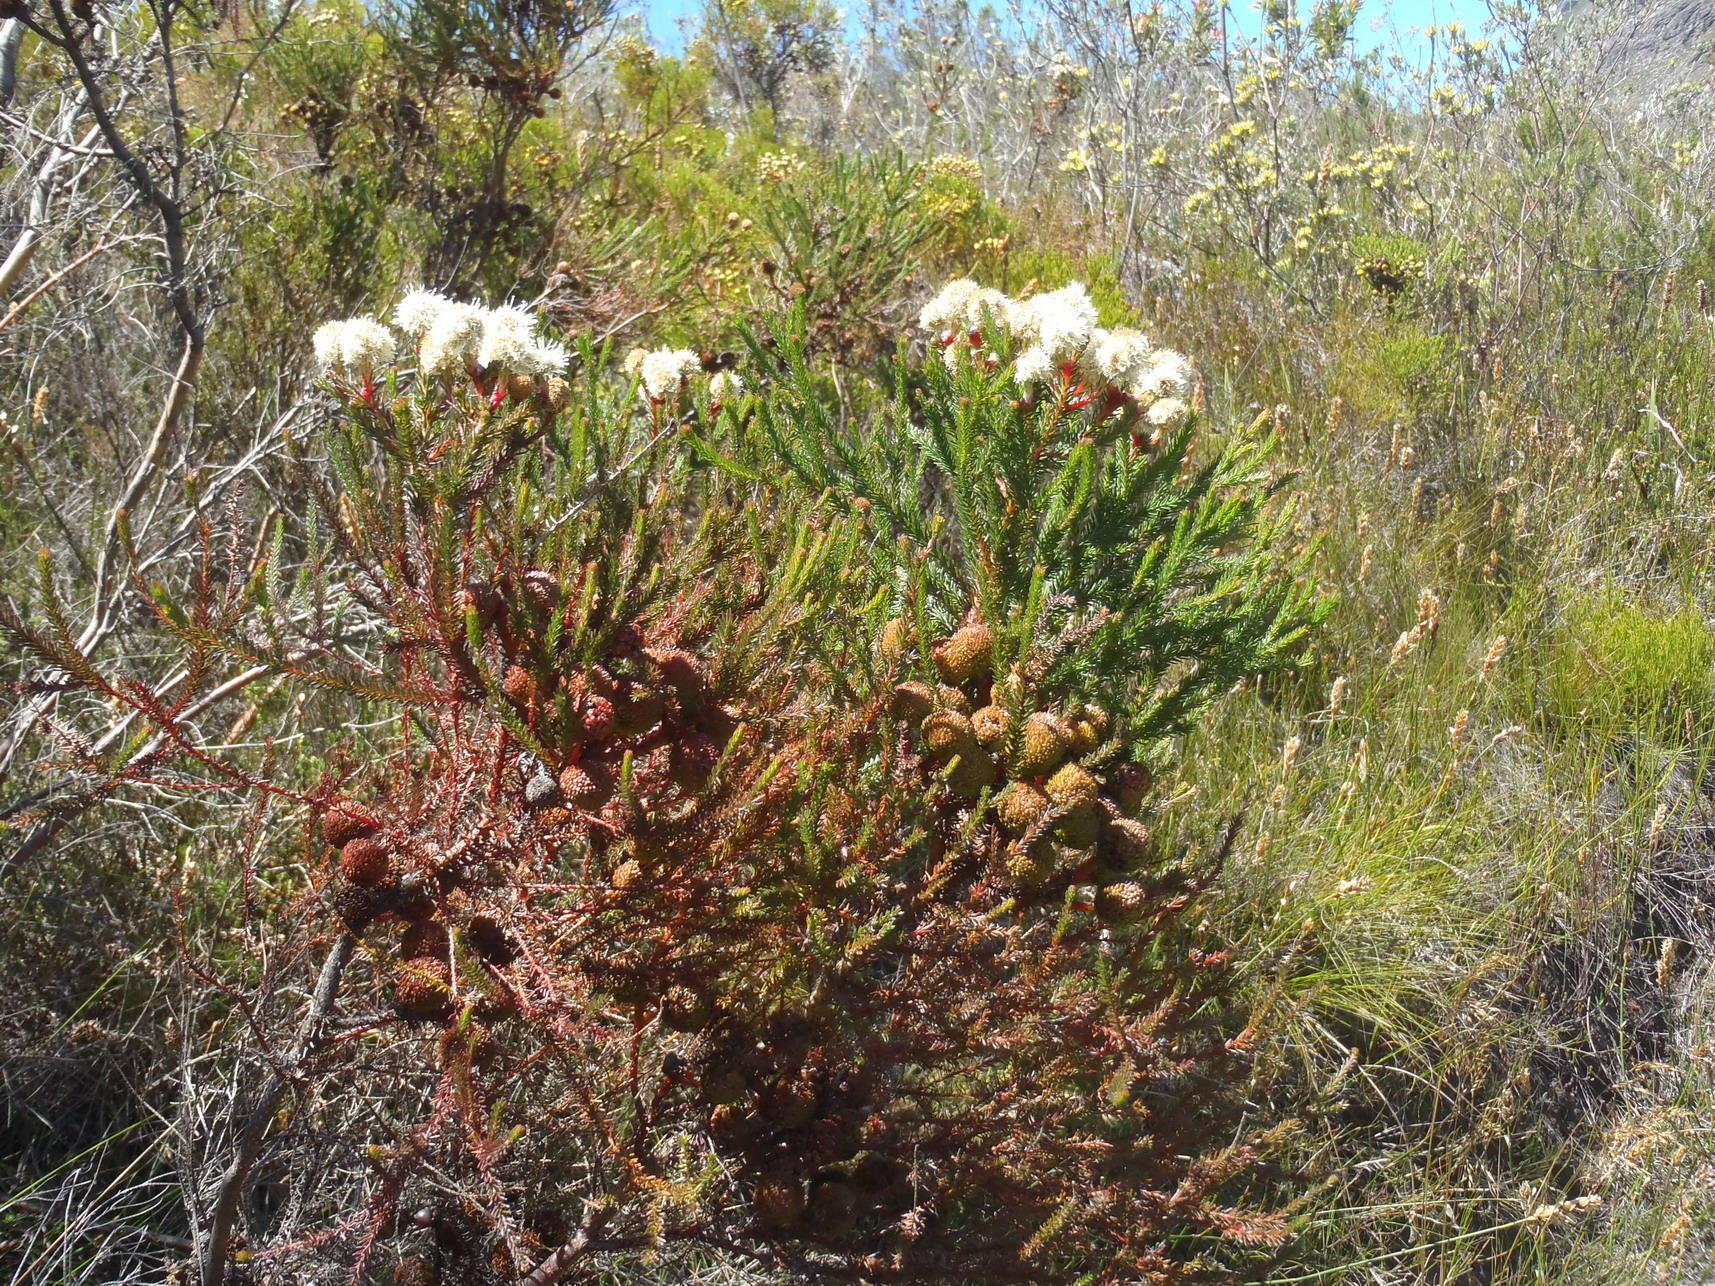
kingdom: Plantae
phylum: Tracheophyta
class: Magnoliopsida
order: Bruniales
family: Bruniaceae
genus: Berzelia
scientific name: Berzelia intermedia
